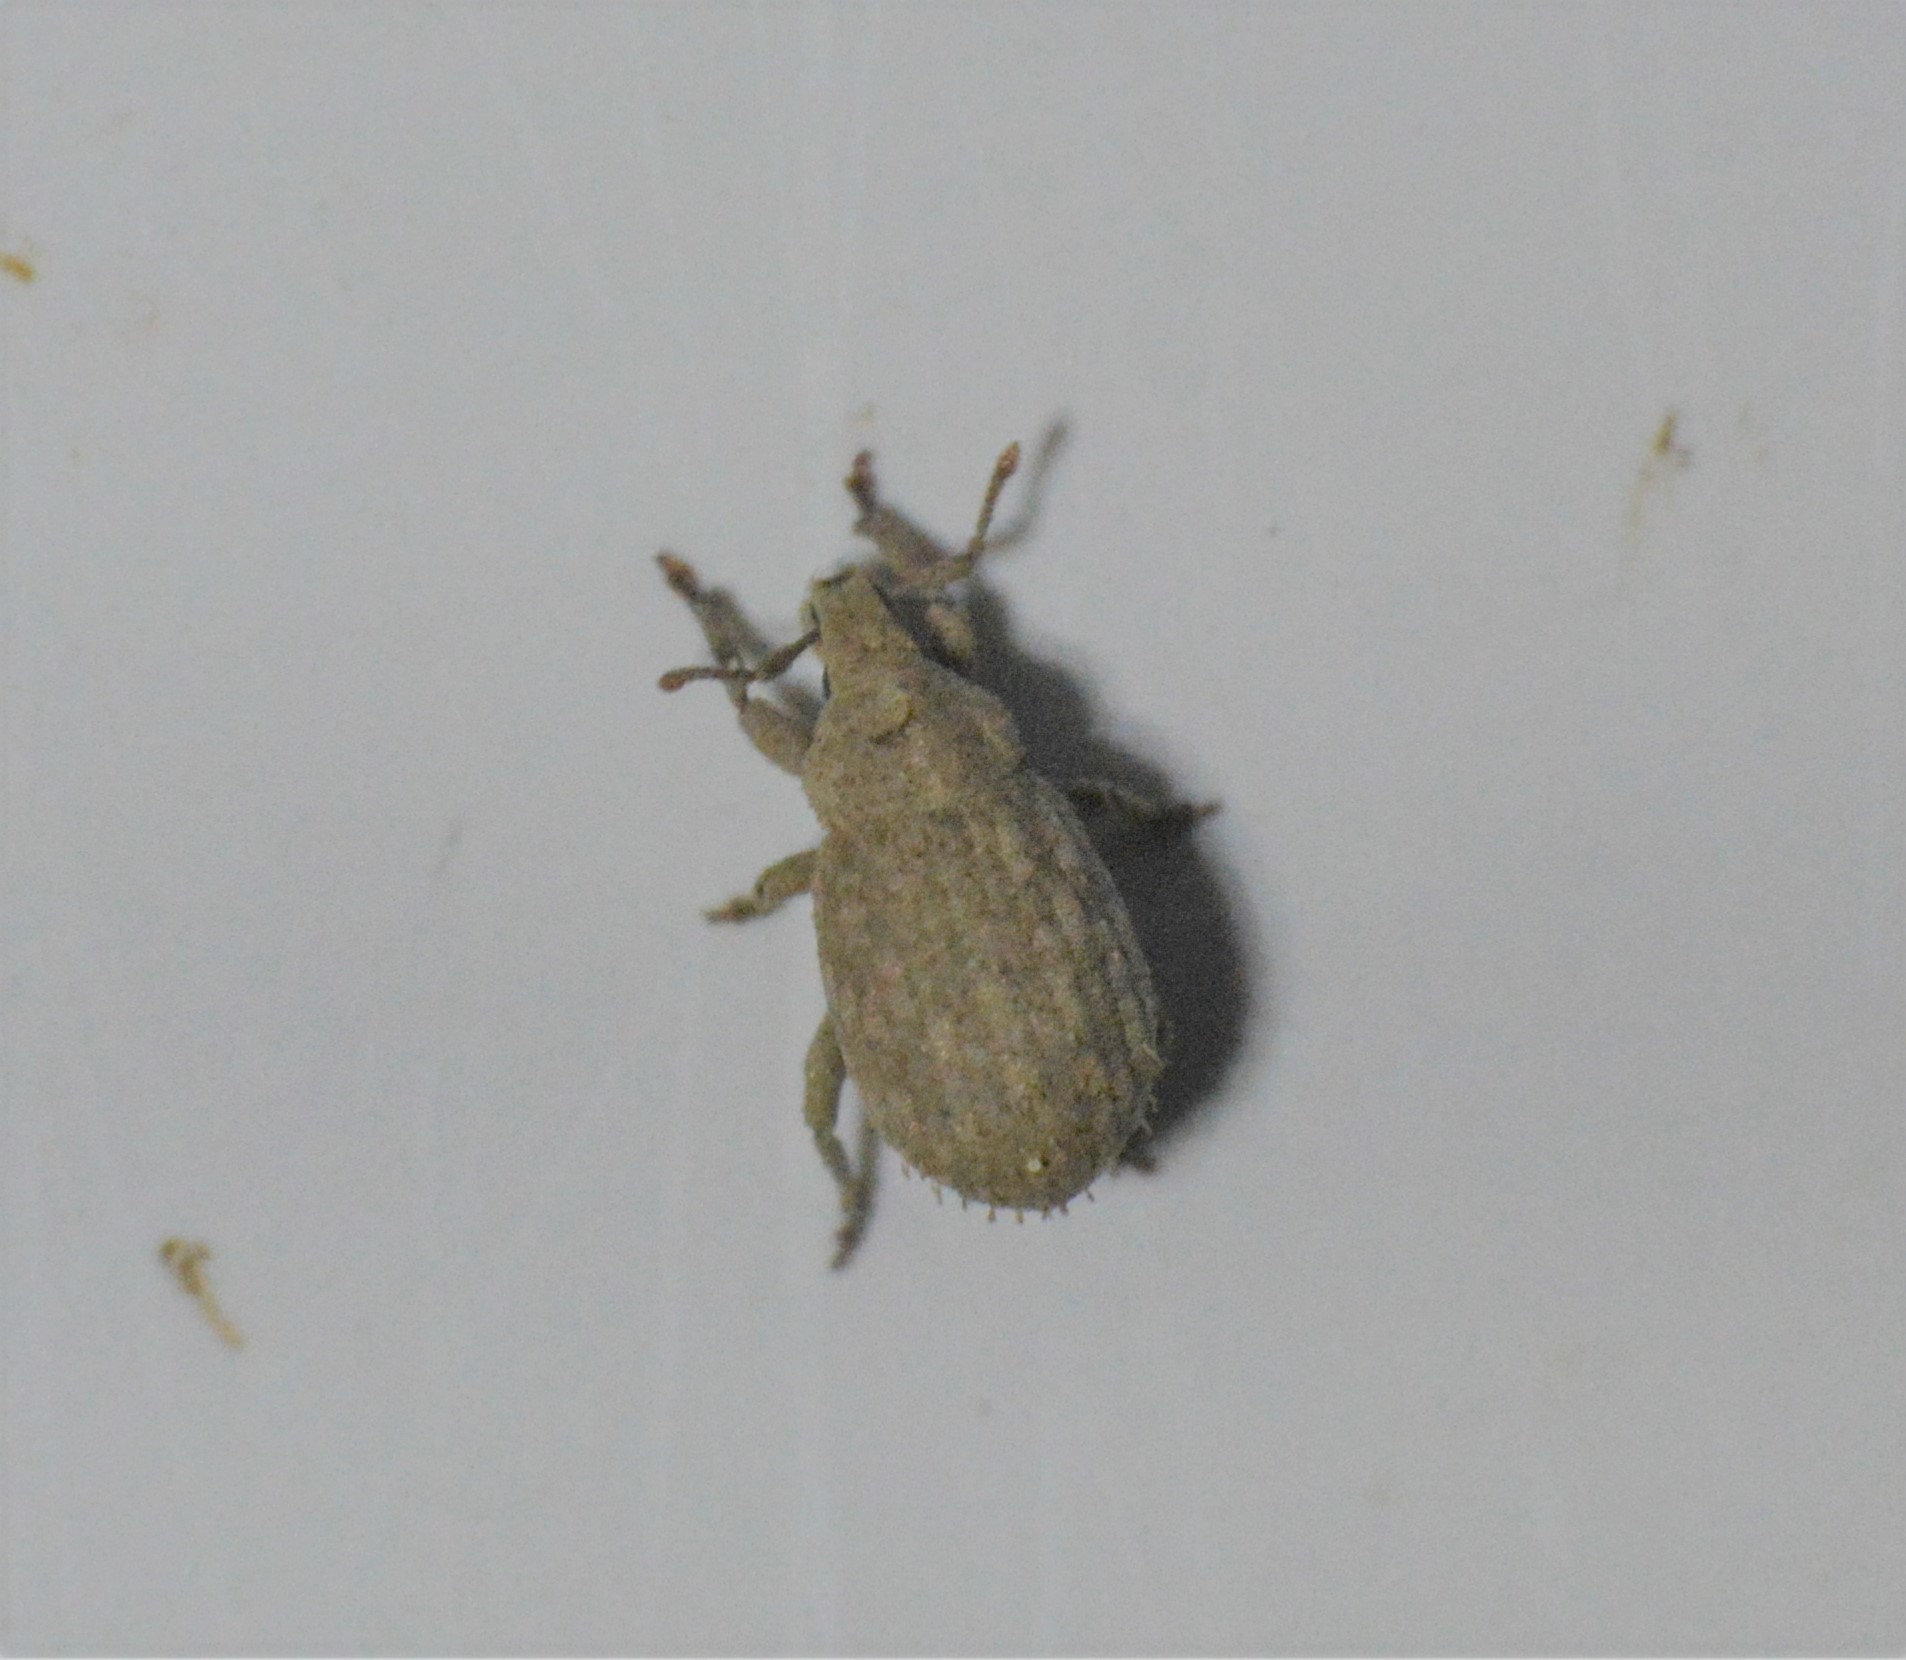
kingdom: Animalia
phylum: Arthropoda
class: Insecta
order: Coleoptera
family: Curculionidae
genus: Romualdius
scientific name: Romualdius scaber
